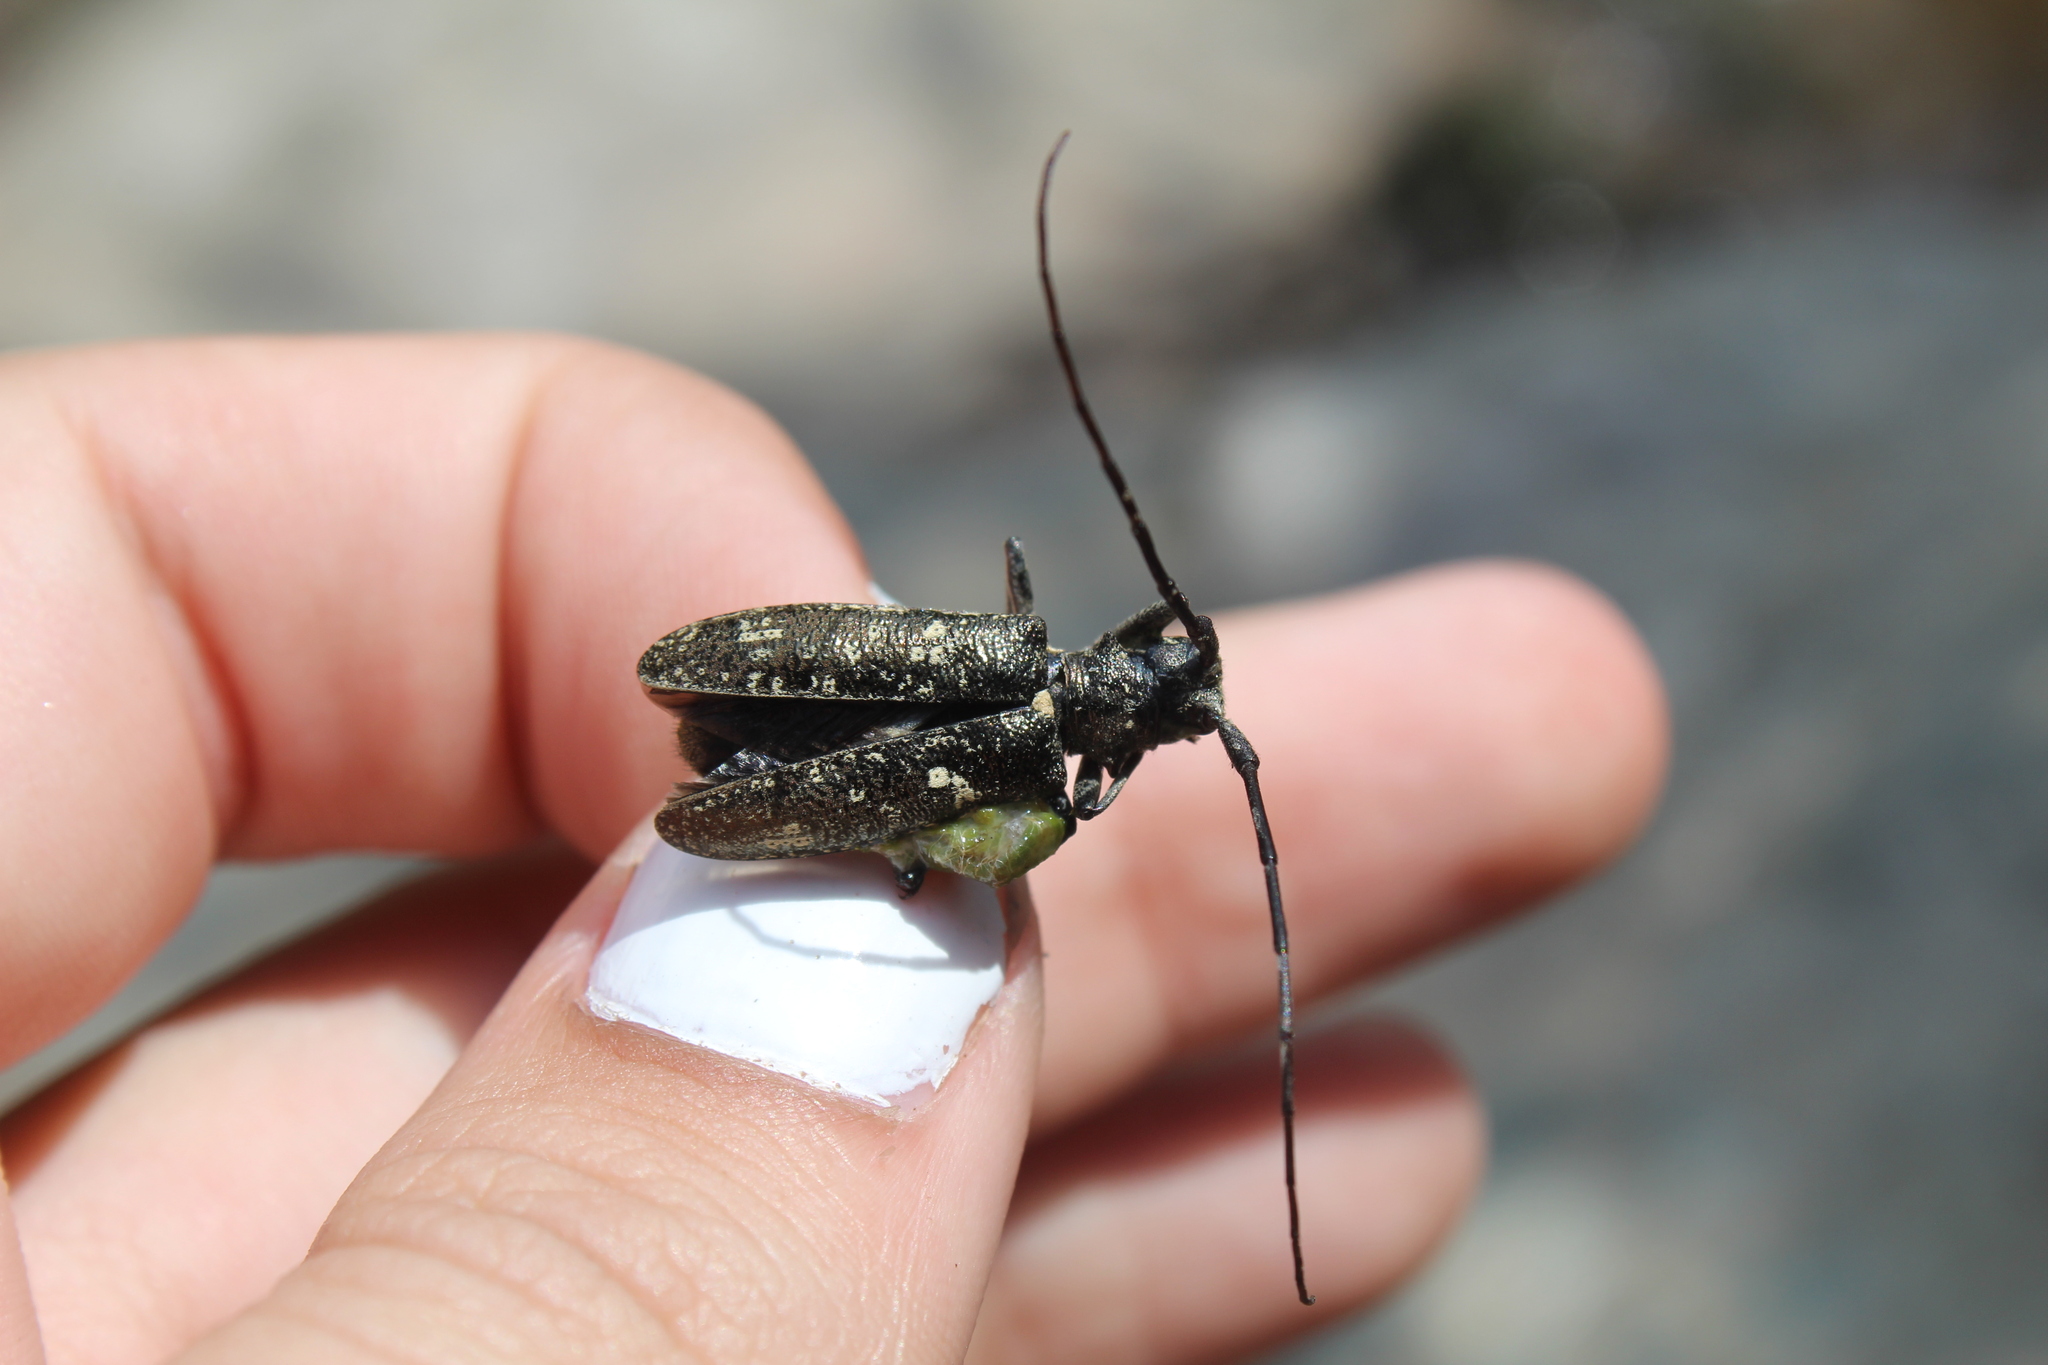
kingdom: Animalia
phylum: Arthropoda
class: Insecta
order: Coleoptera
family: Cerambycidae
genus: Monochamus
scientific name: Monochamus scutellatus
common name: White-spotted sawyer beetle
